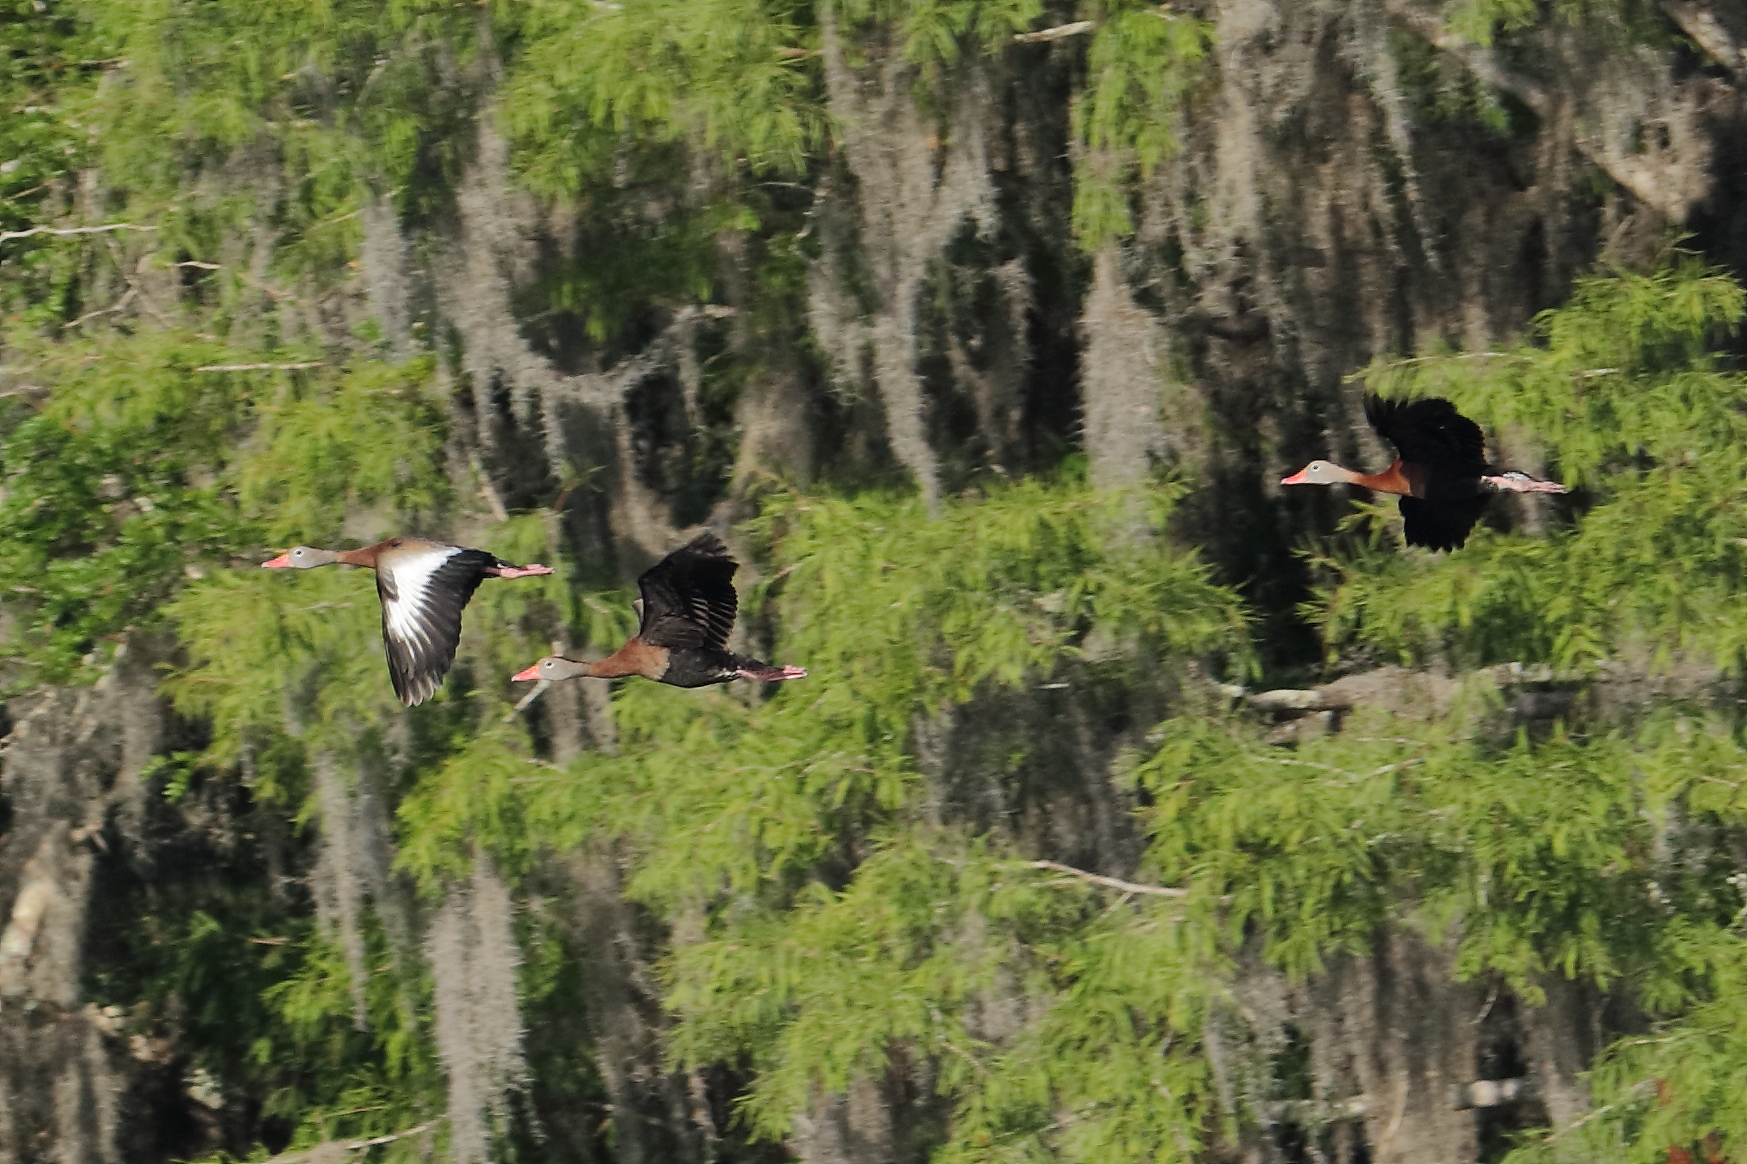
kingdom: Animalia
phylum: Chordata
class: Aves
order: Anseriformes
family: Anatidae
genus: Dendrocygna
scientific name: Dendrocygna autumnalis
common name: Black-bellied whistling duck
